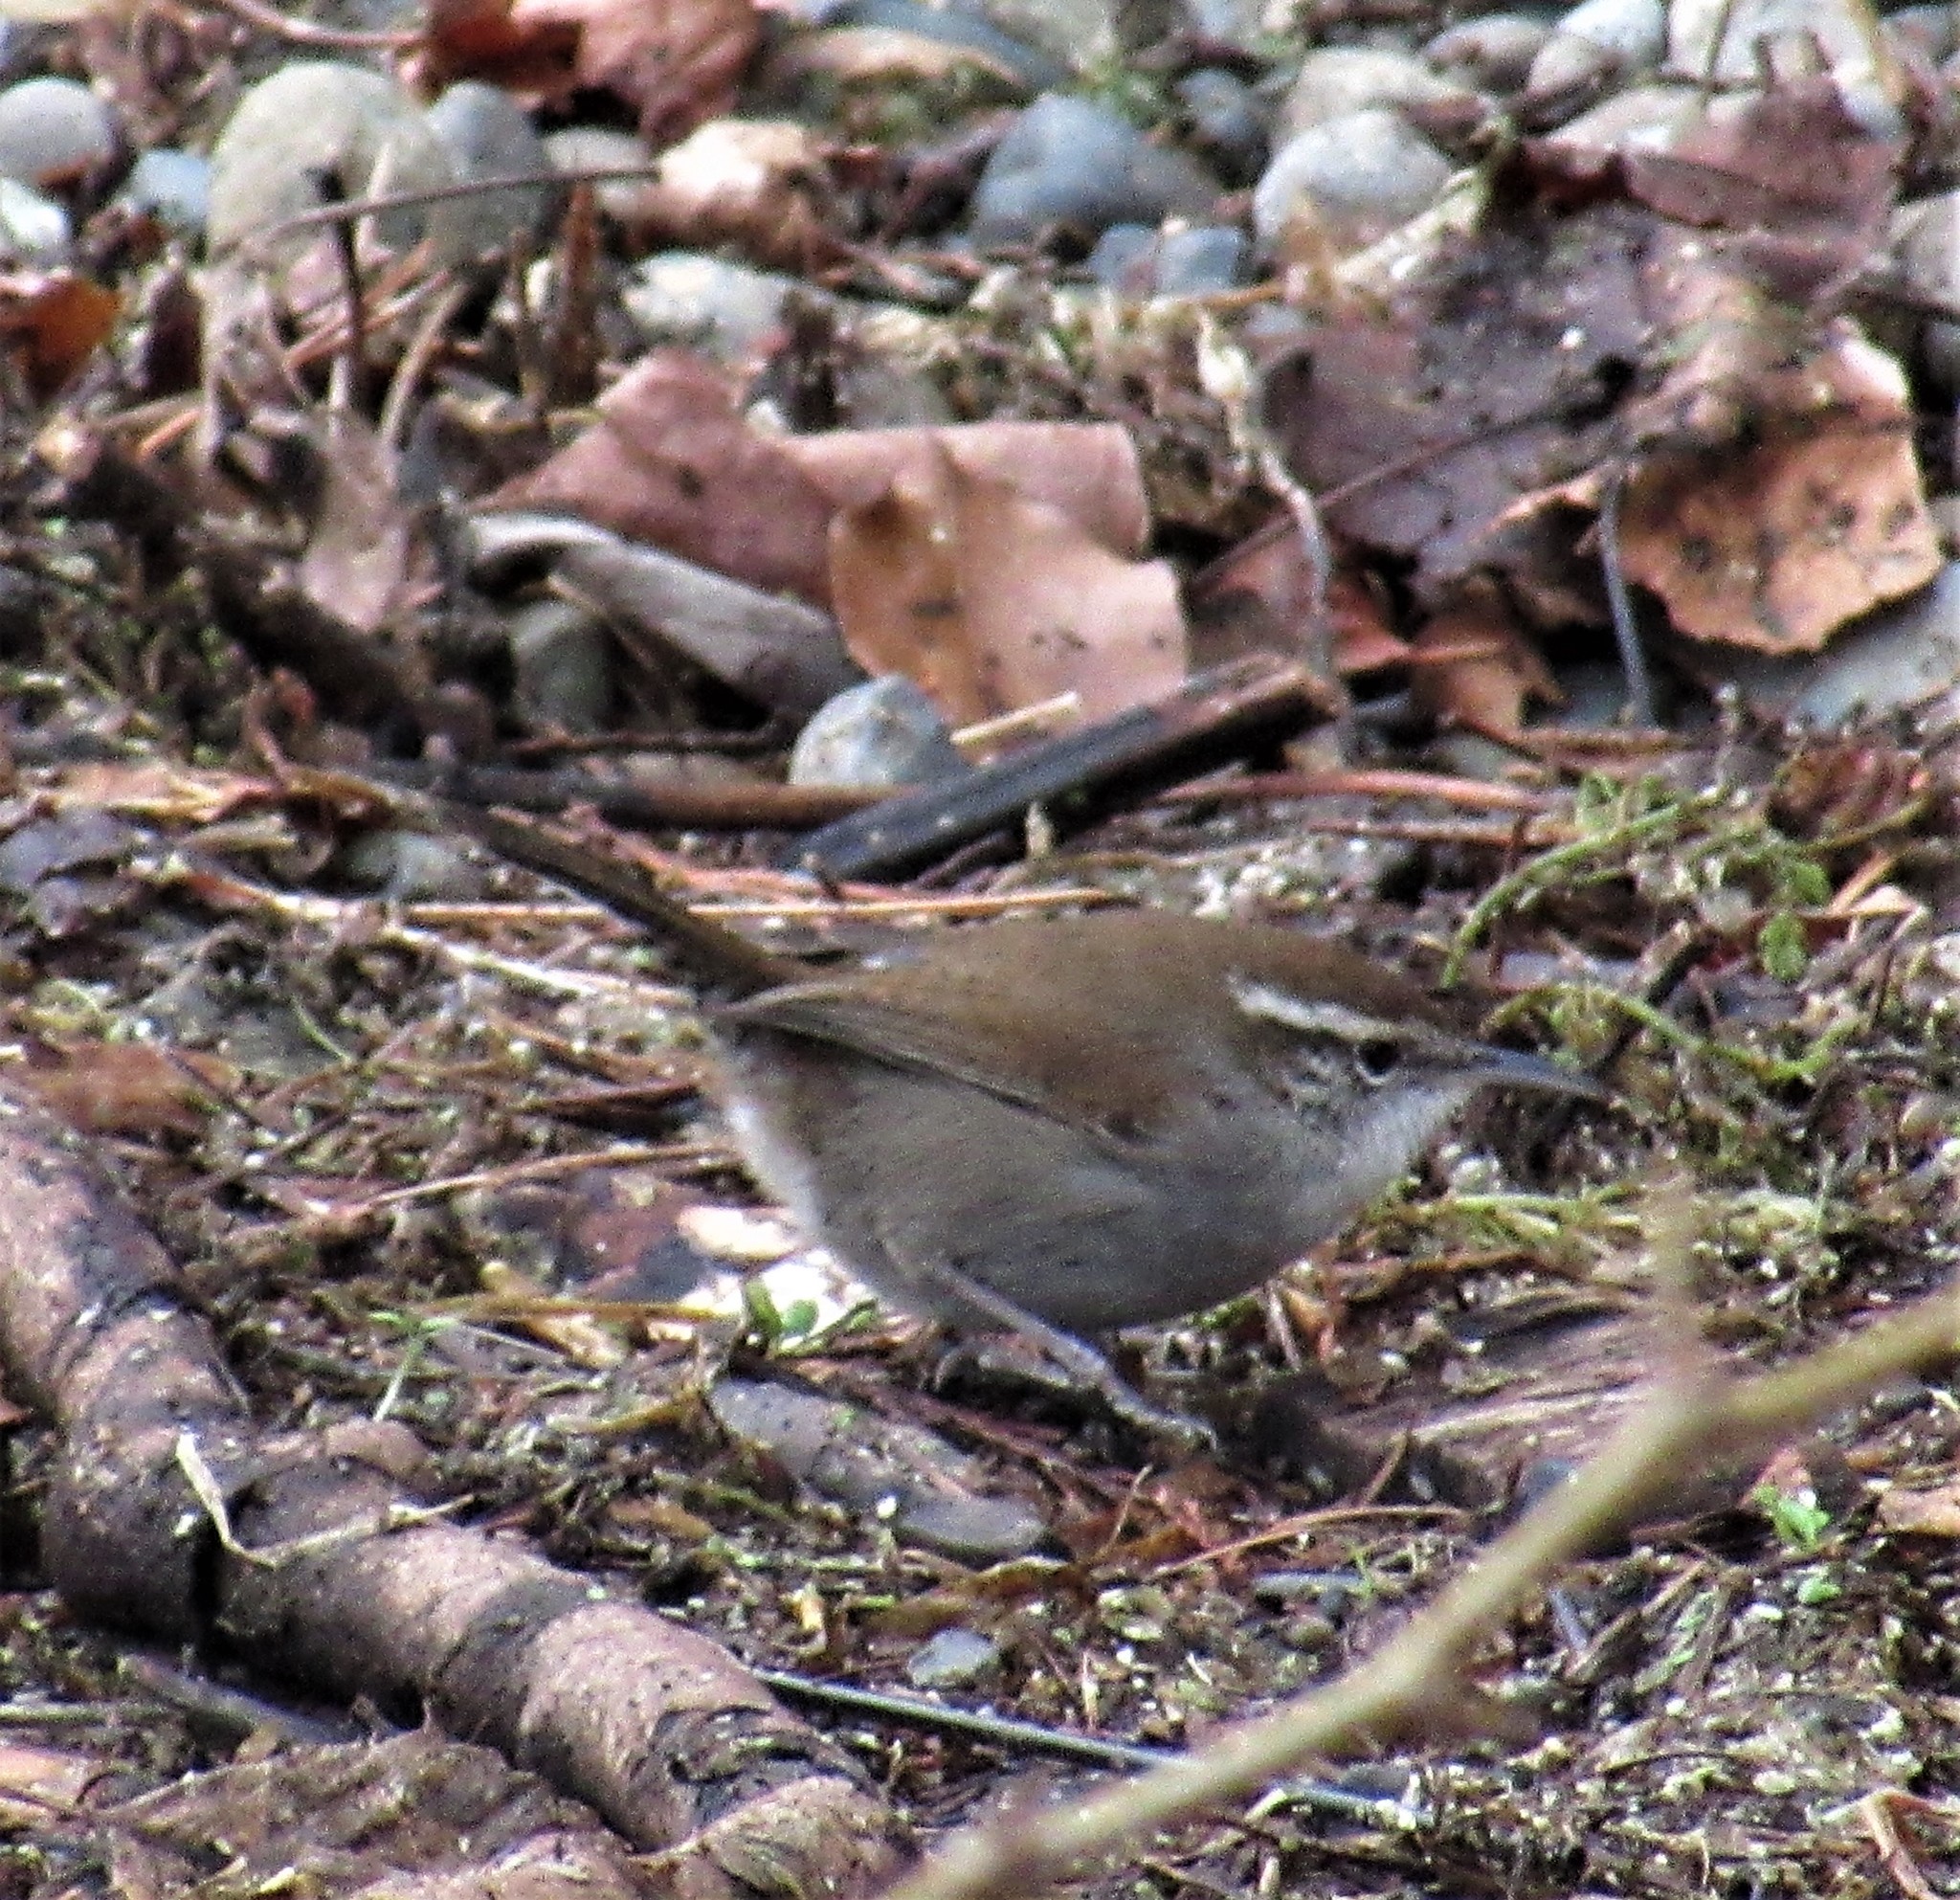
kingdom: Animalia
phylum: Chordata
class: Aves
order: Passeriformes
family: Troglodytidae
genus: Thryomanes
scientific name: Thryomanes bewickii
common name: Bewick's wren
